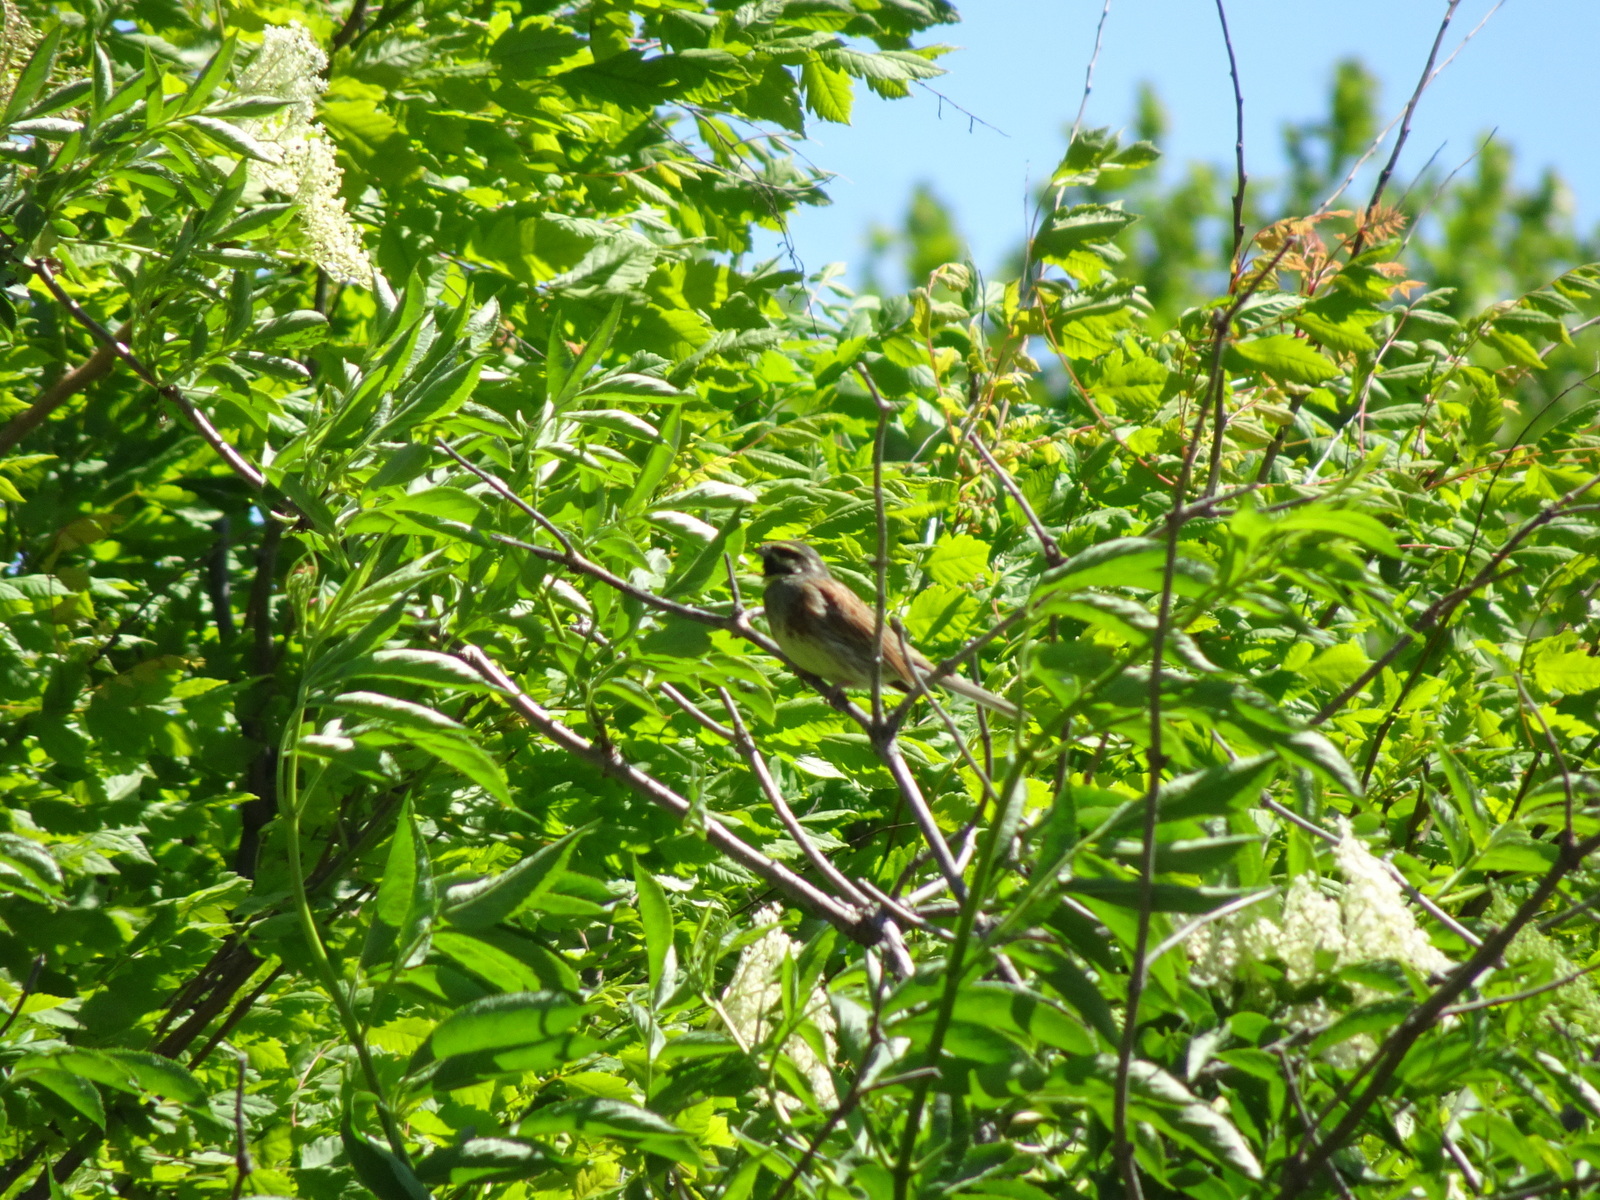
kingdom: Animalia
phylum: Chordata
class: Aves
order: Passeriformes
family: Emberizidae
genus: Emberiza
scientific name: Emberiza cirlus
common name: Cirl bunting
